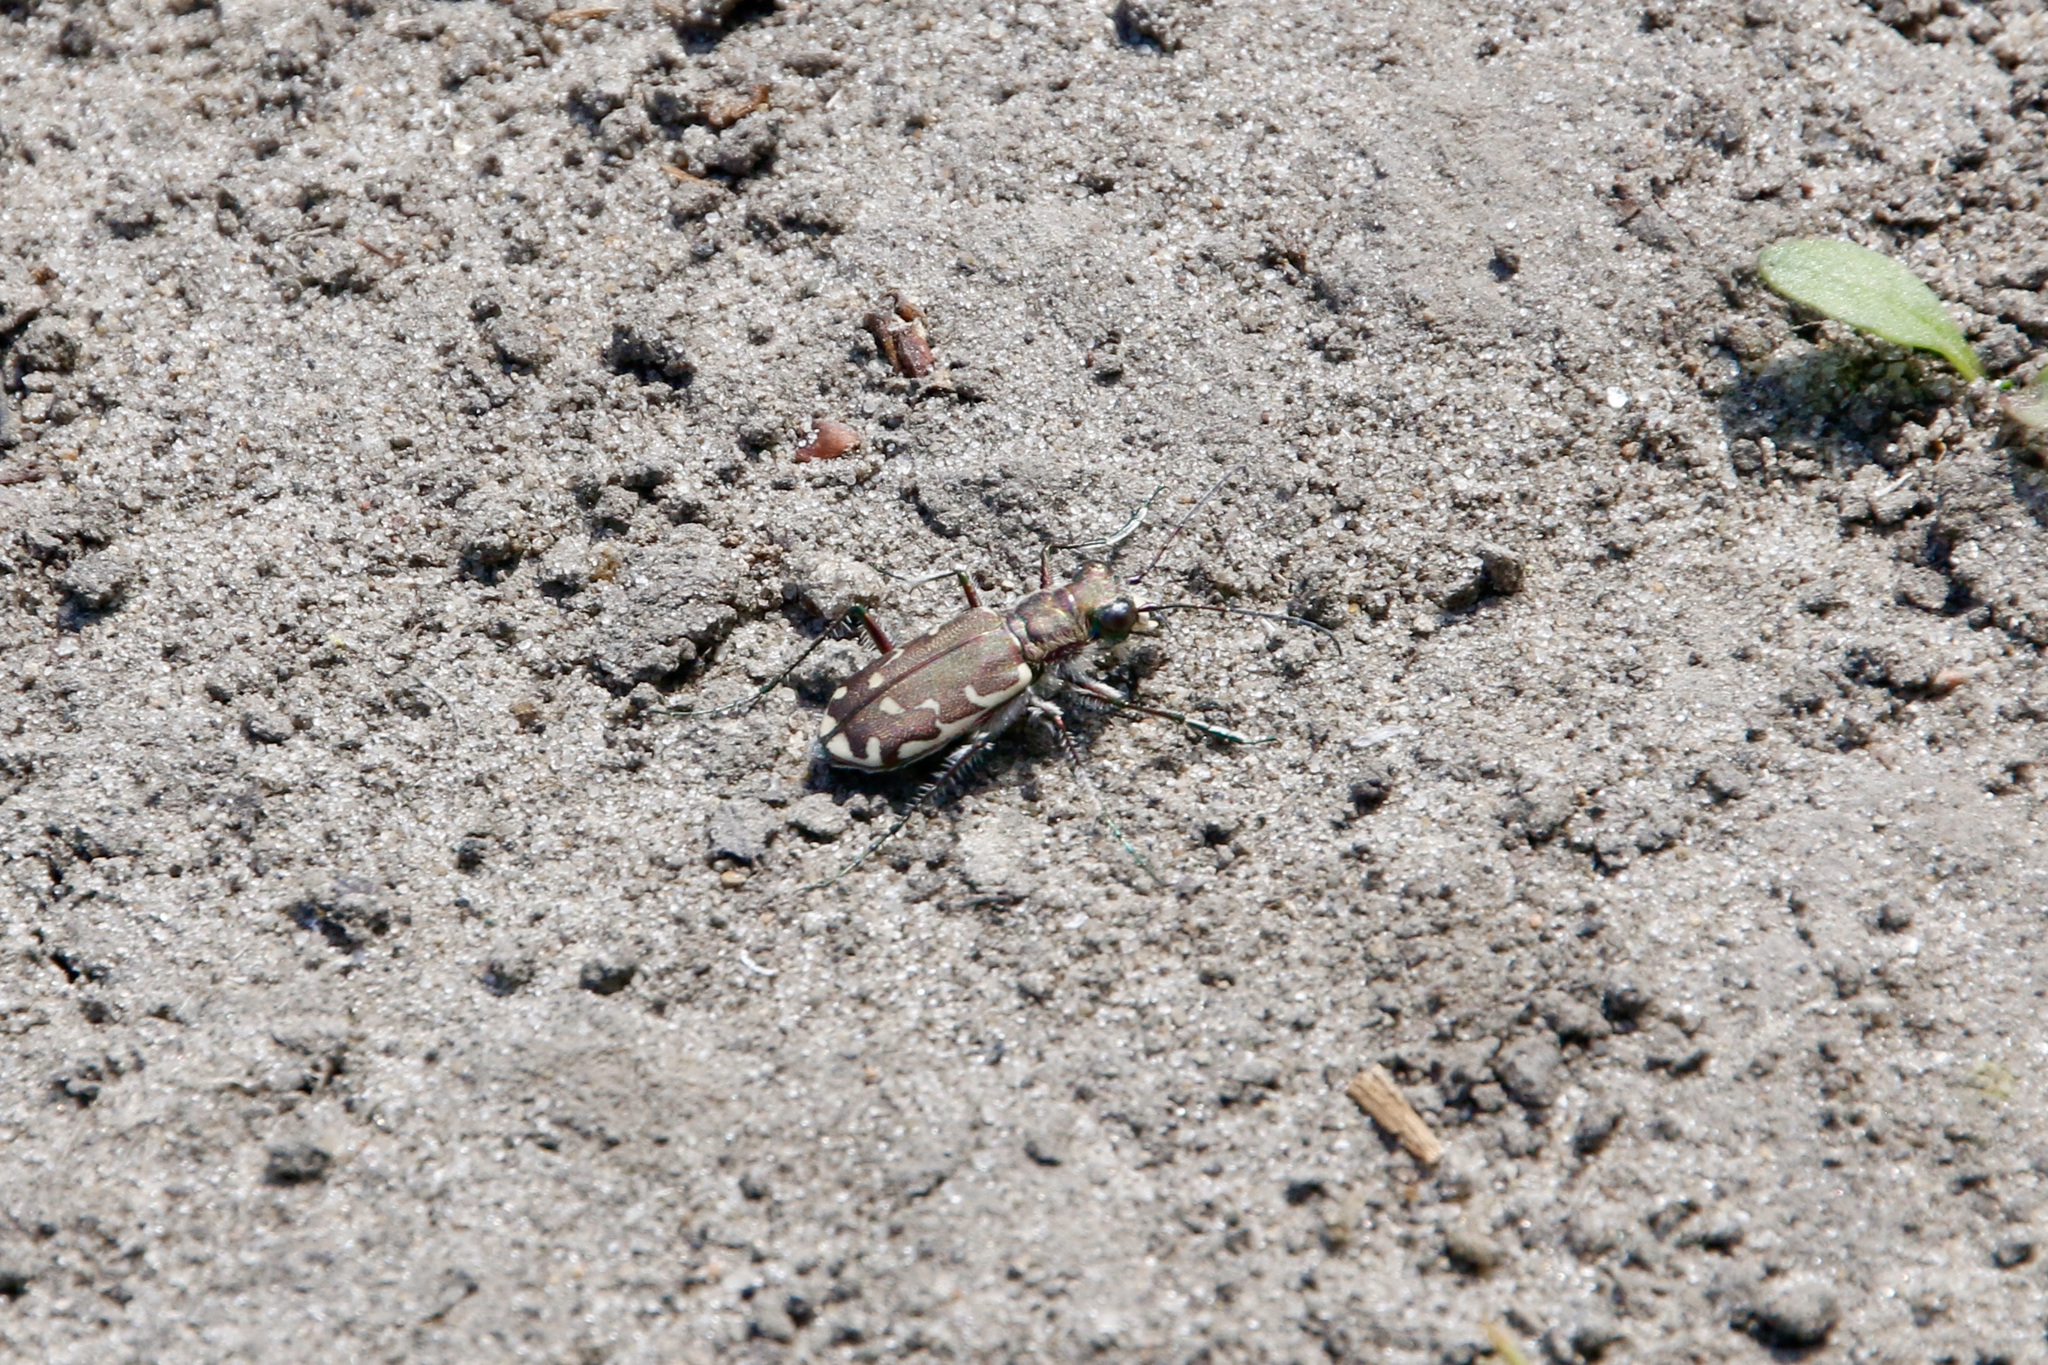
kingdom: Animalia
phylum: Arthropoda
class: Insecta
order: Coleoptera
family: Carabidae
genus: Cicindela
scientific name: Cicindela repanda
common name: Bronzed tiger beetle
